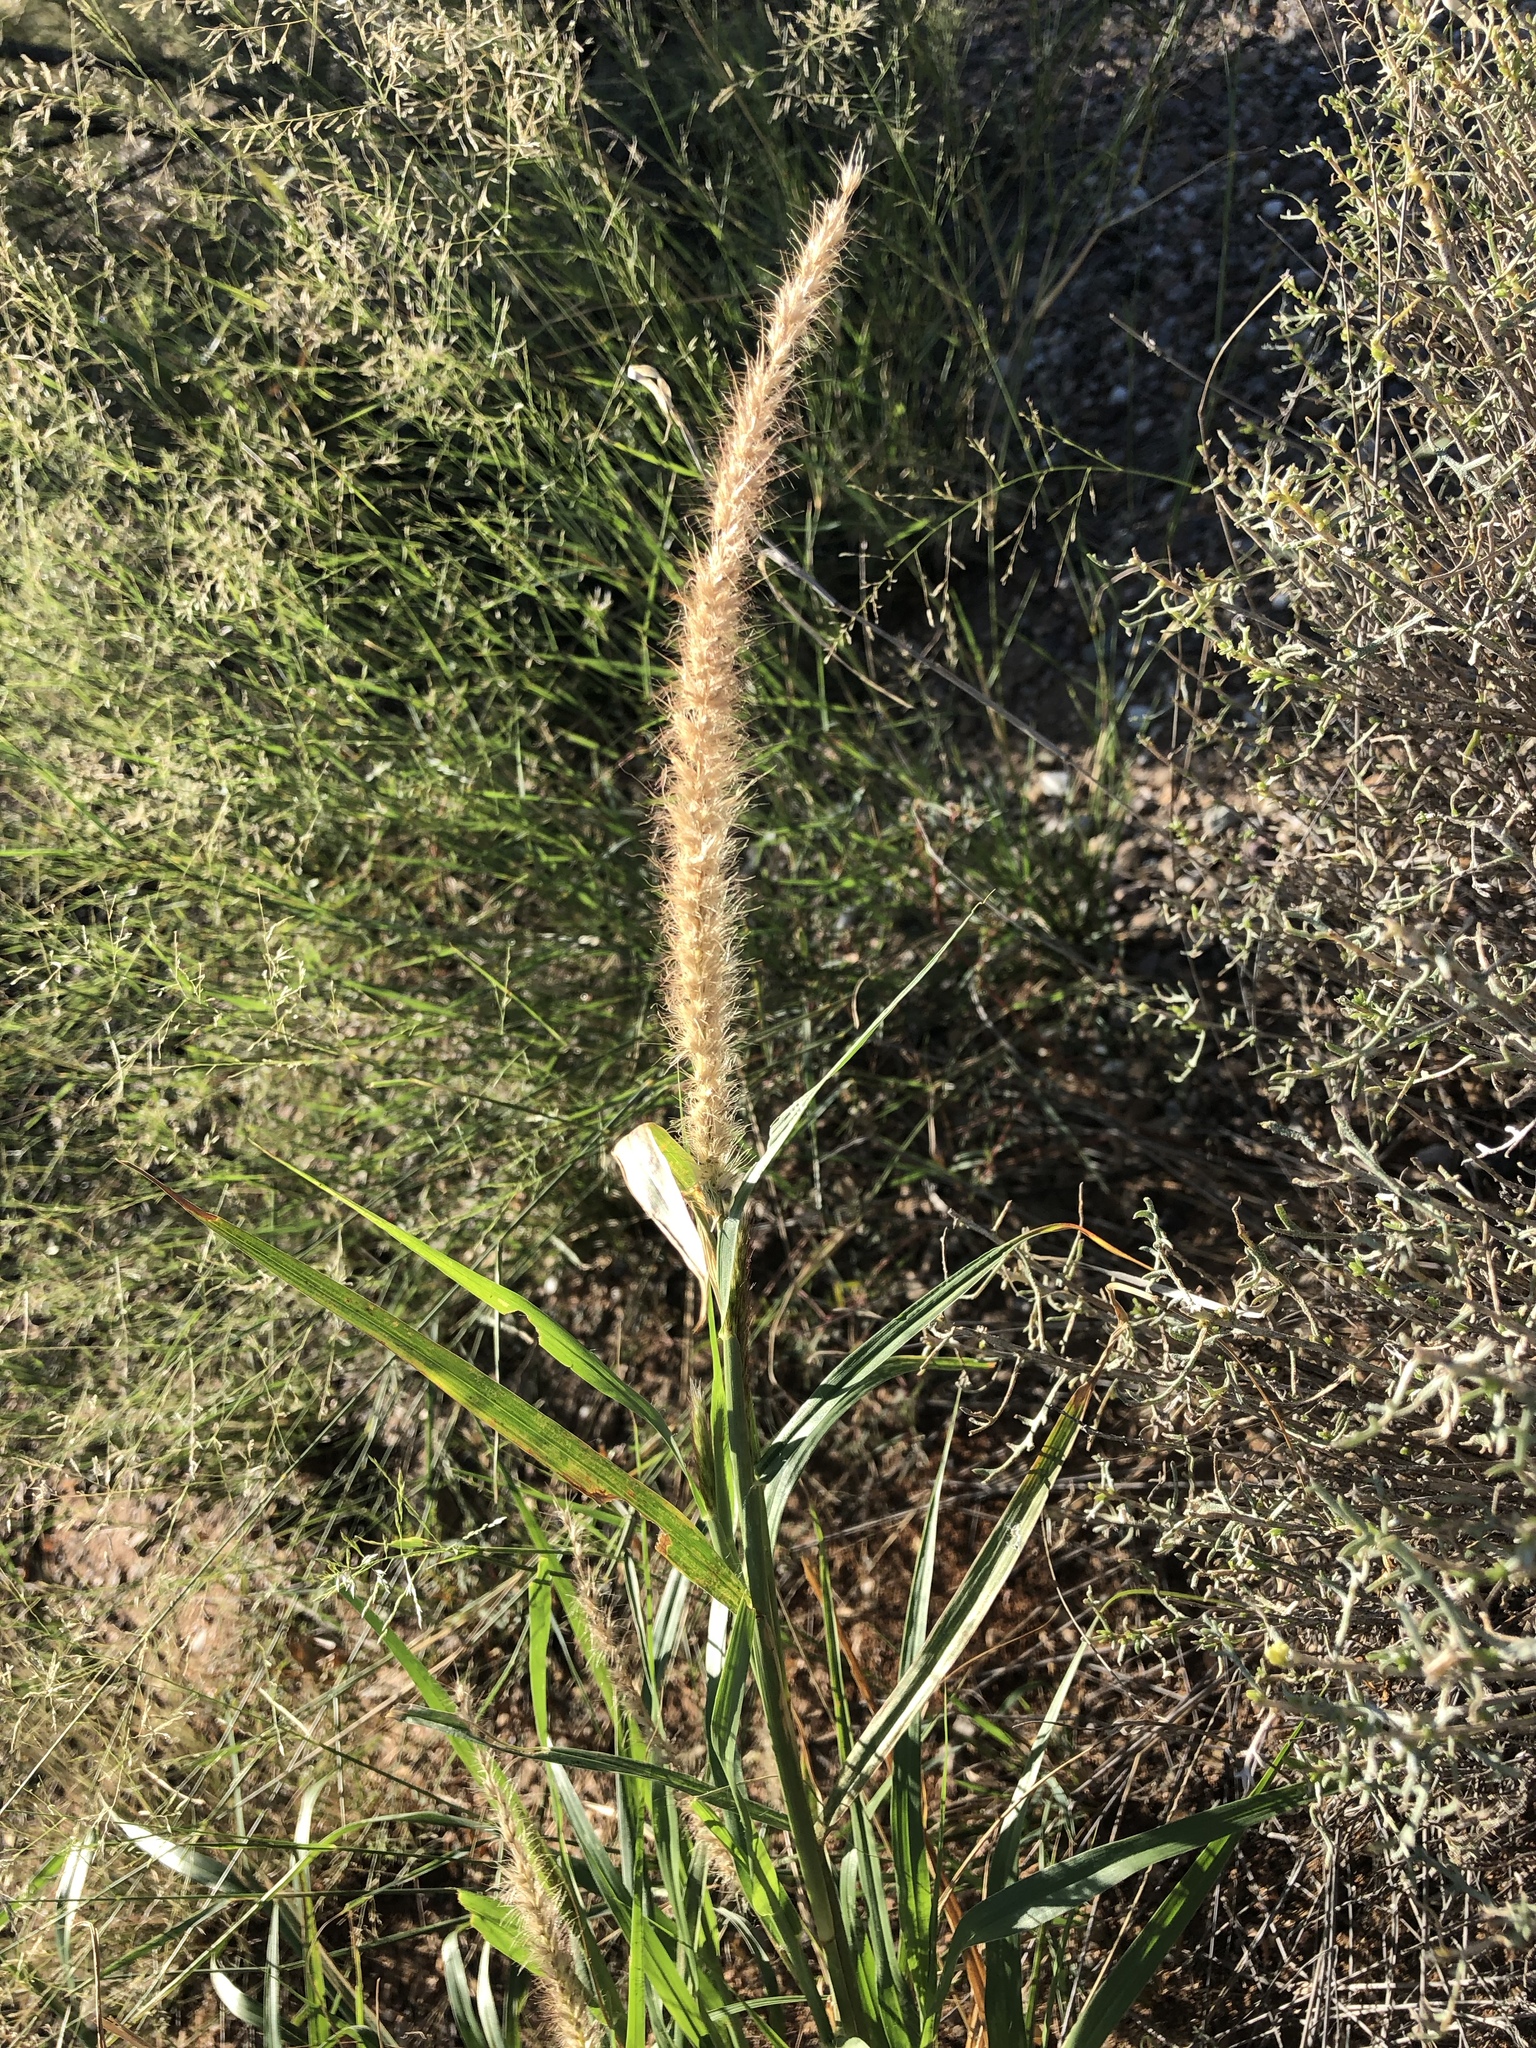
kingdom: Plantae
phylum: Tracheophyta
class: Liliopsida
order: Poales
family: Poaceae
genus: Cenchrus
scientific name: Cenchrus ciliaris
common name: Buffelgrass
